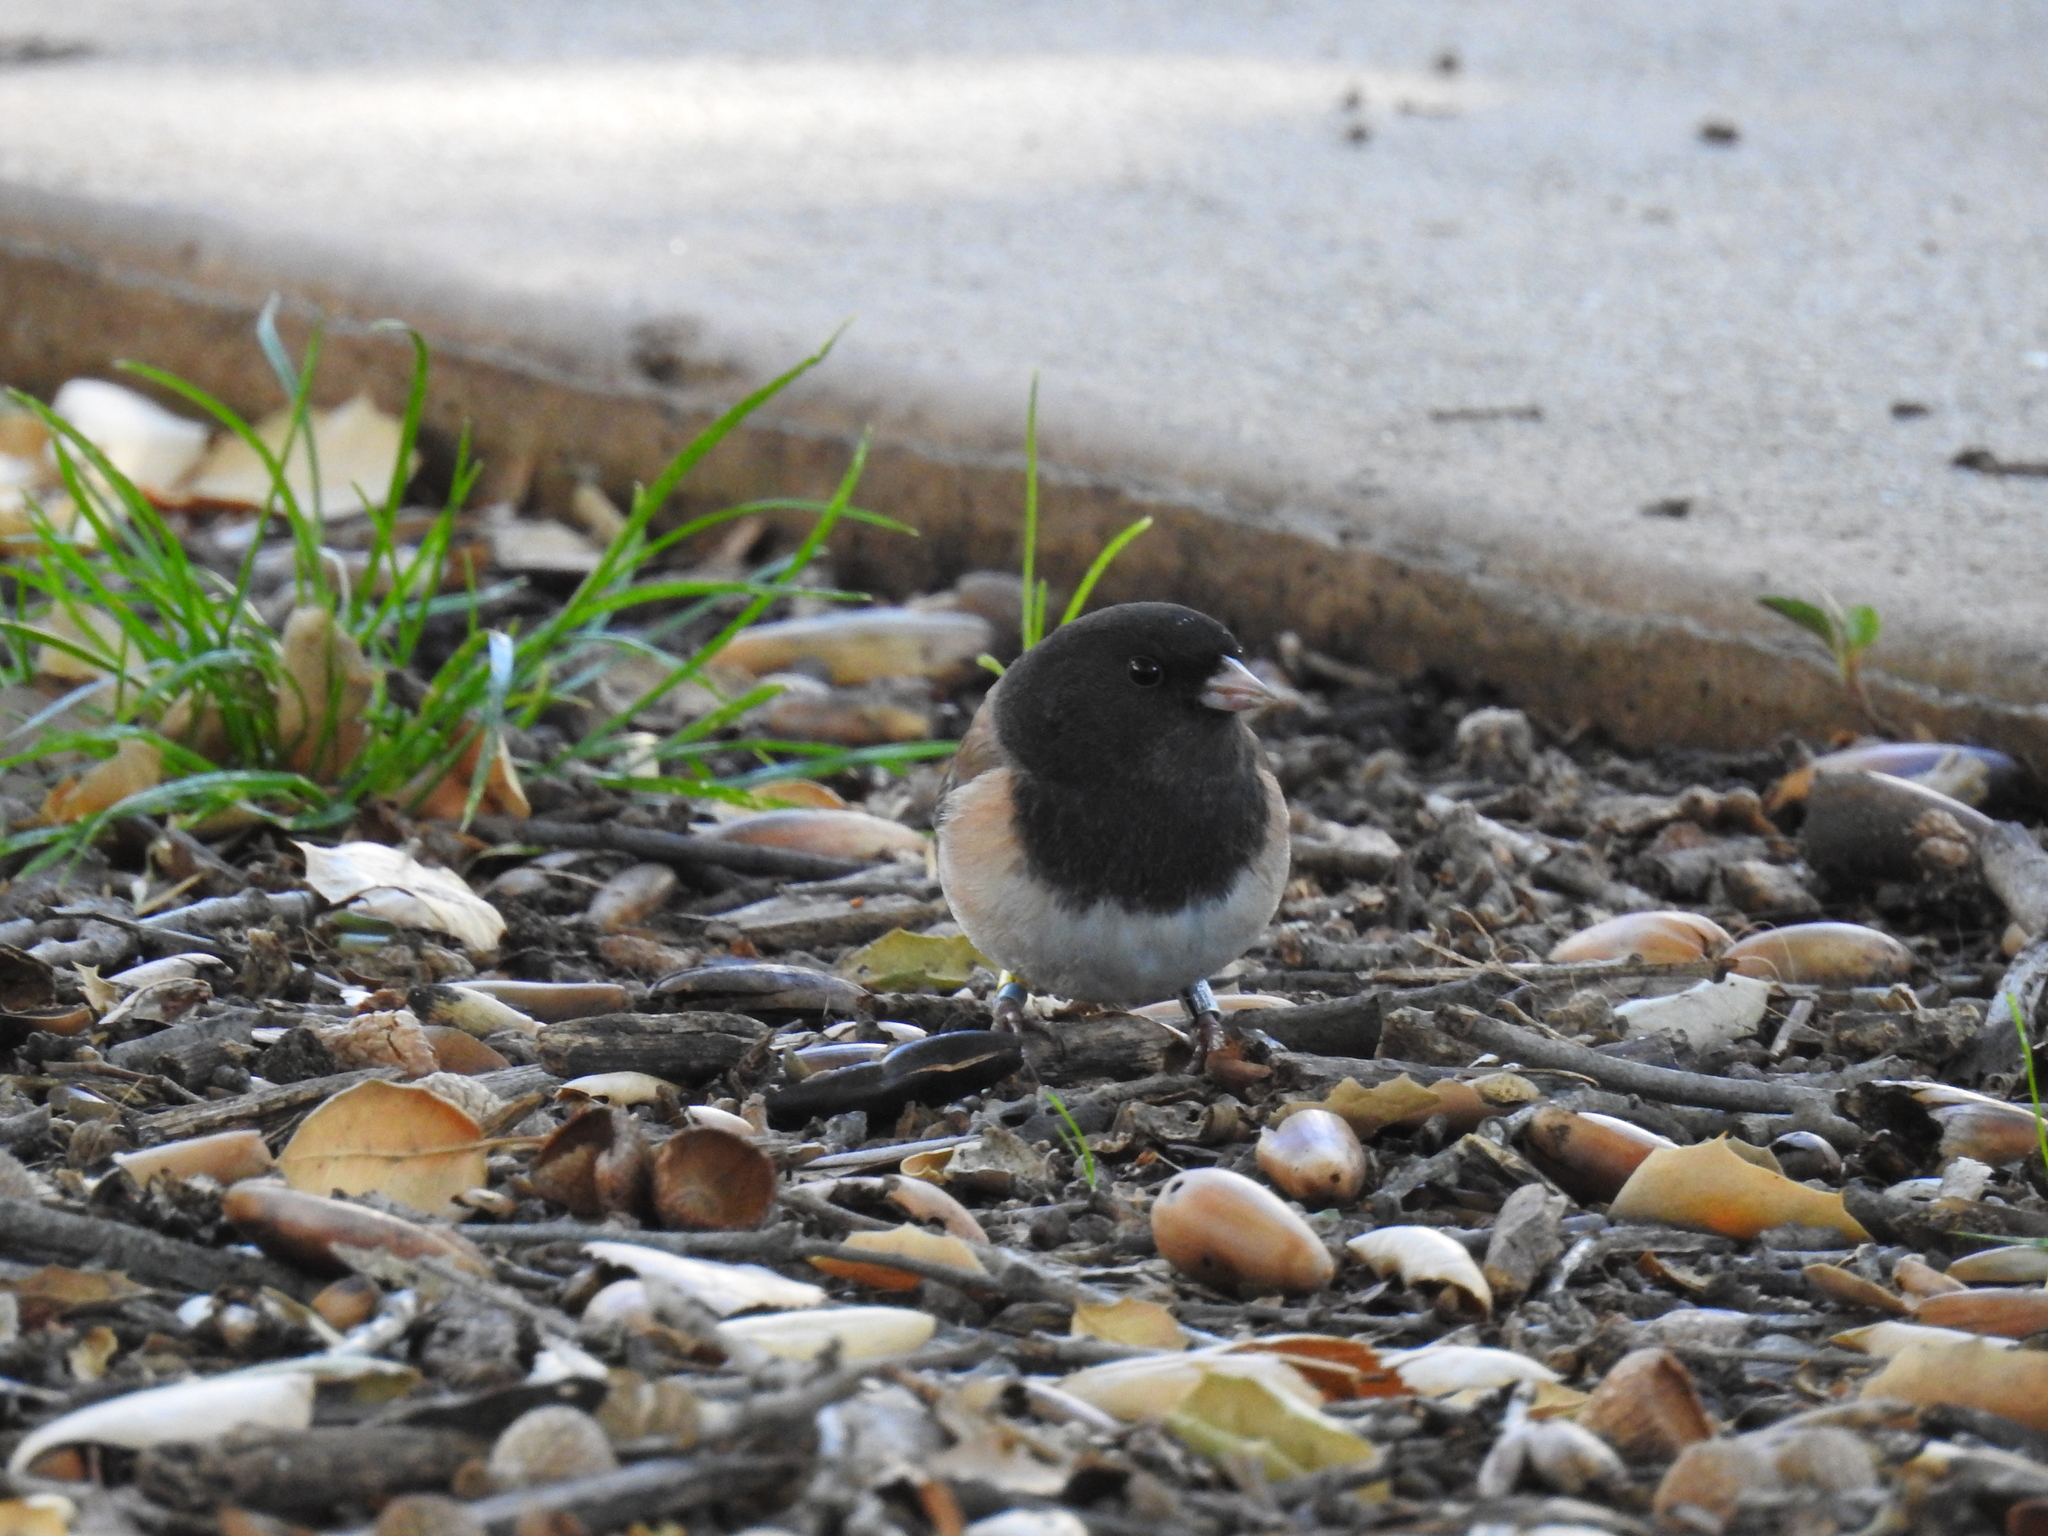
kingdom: Animalia
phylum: Chordata
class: Aves
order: Passeriformes
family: Passerellidae
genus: Junco
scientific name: Junco hyemalis
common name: Dark-eyed junco
